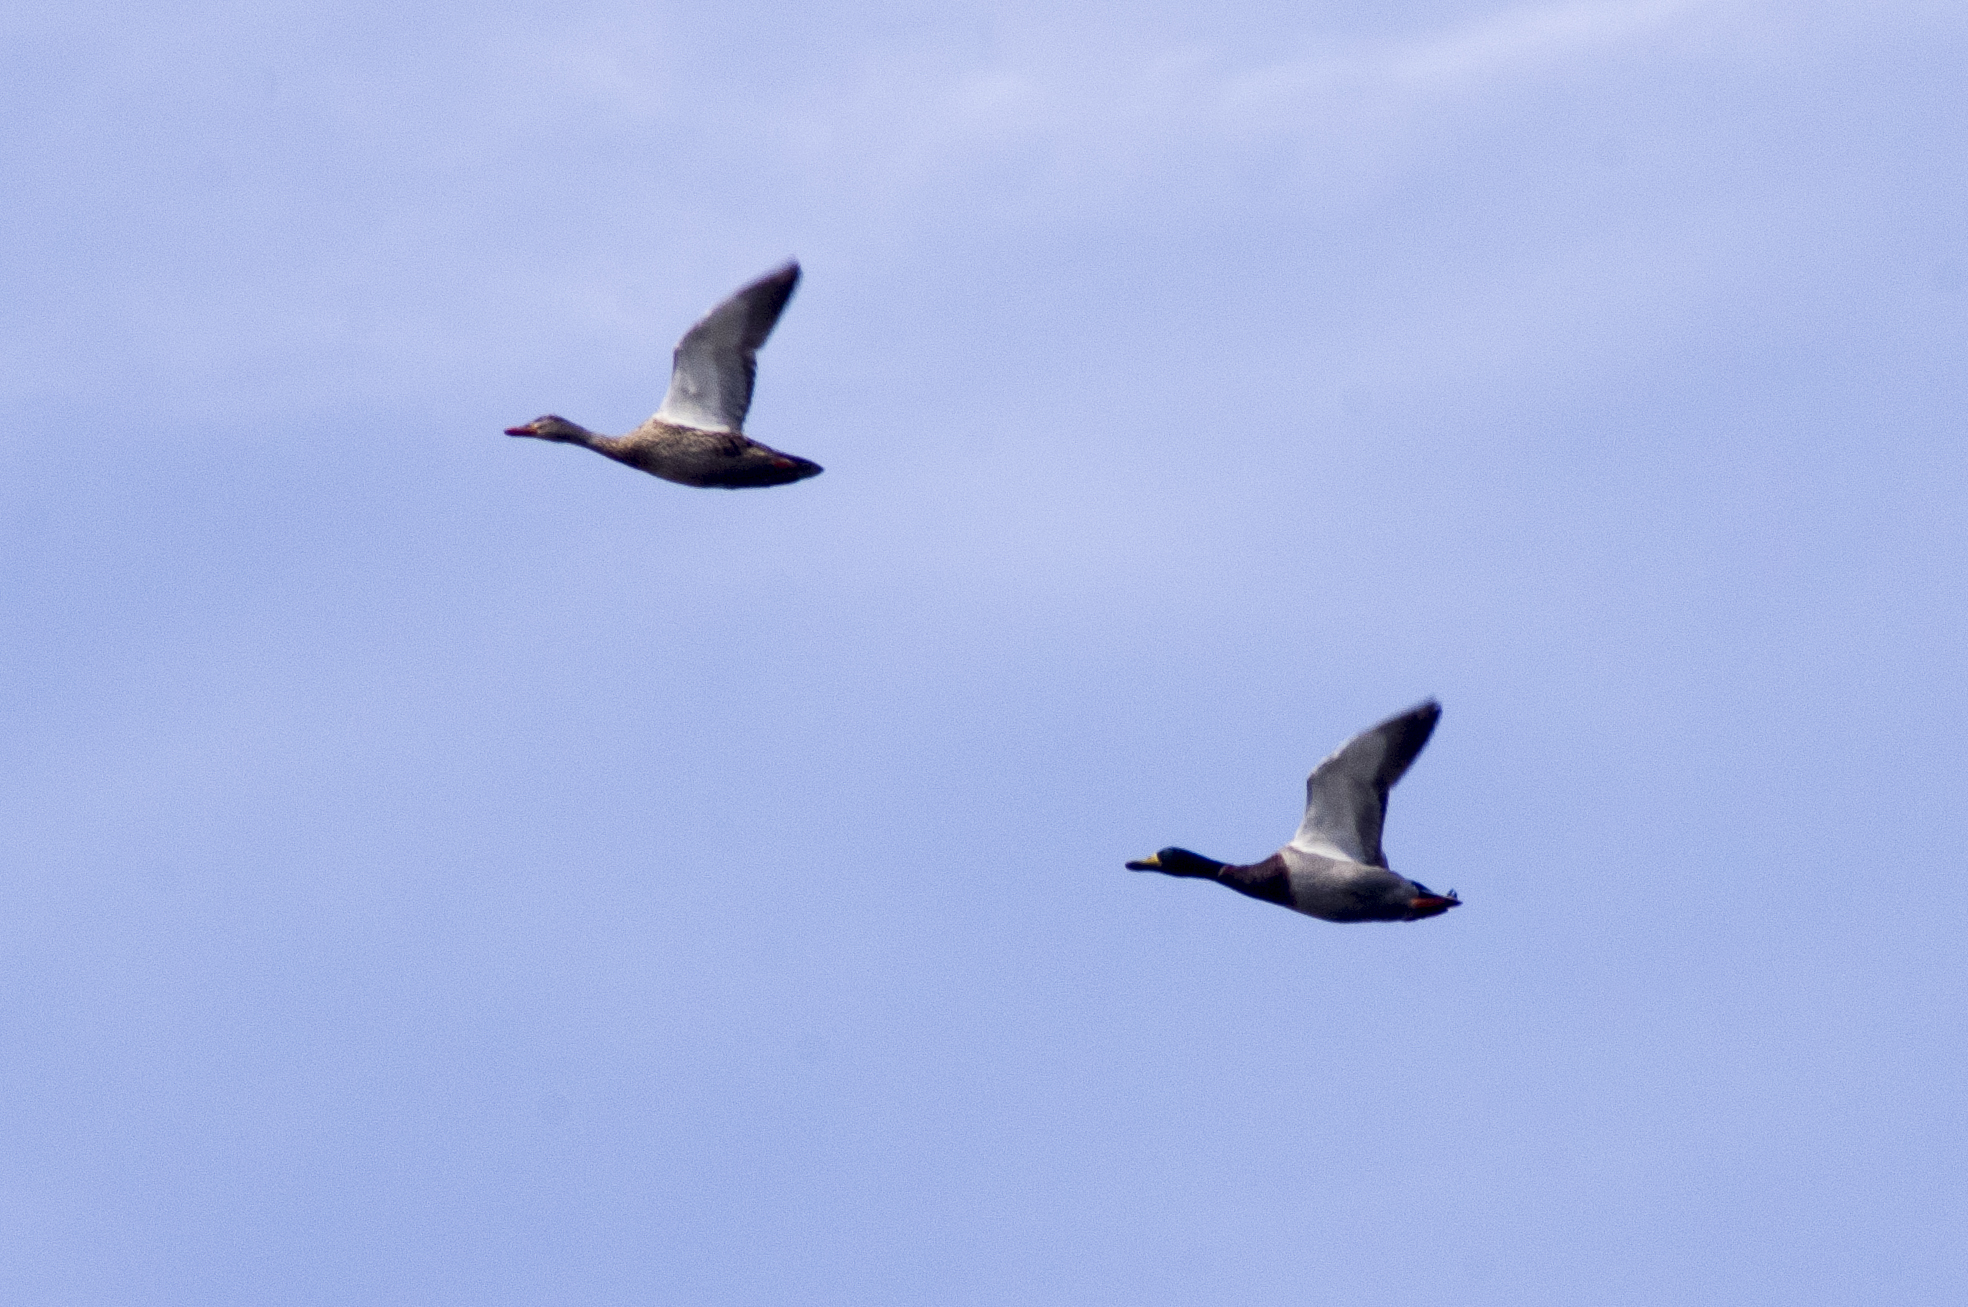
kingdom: Animalia
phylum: Chordata
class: Aves
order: Anseriformes
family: Anatidae
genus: Anas
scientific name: Anas platyrhynchos
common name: Mallard
